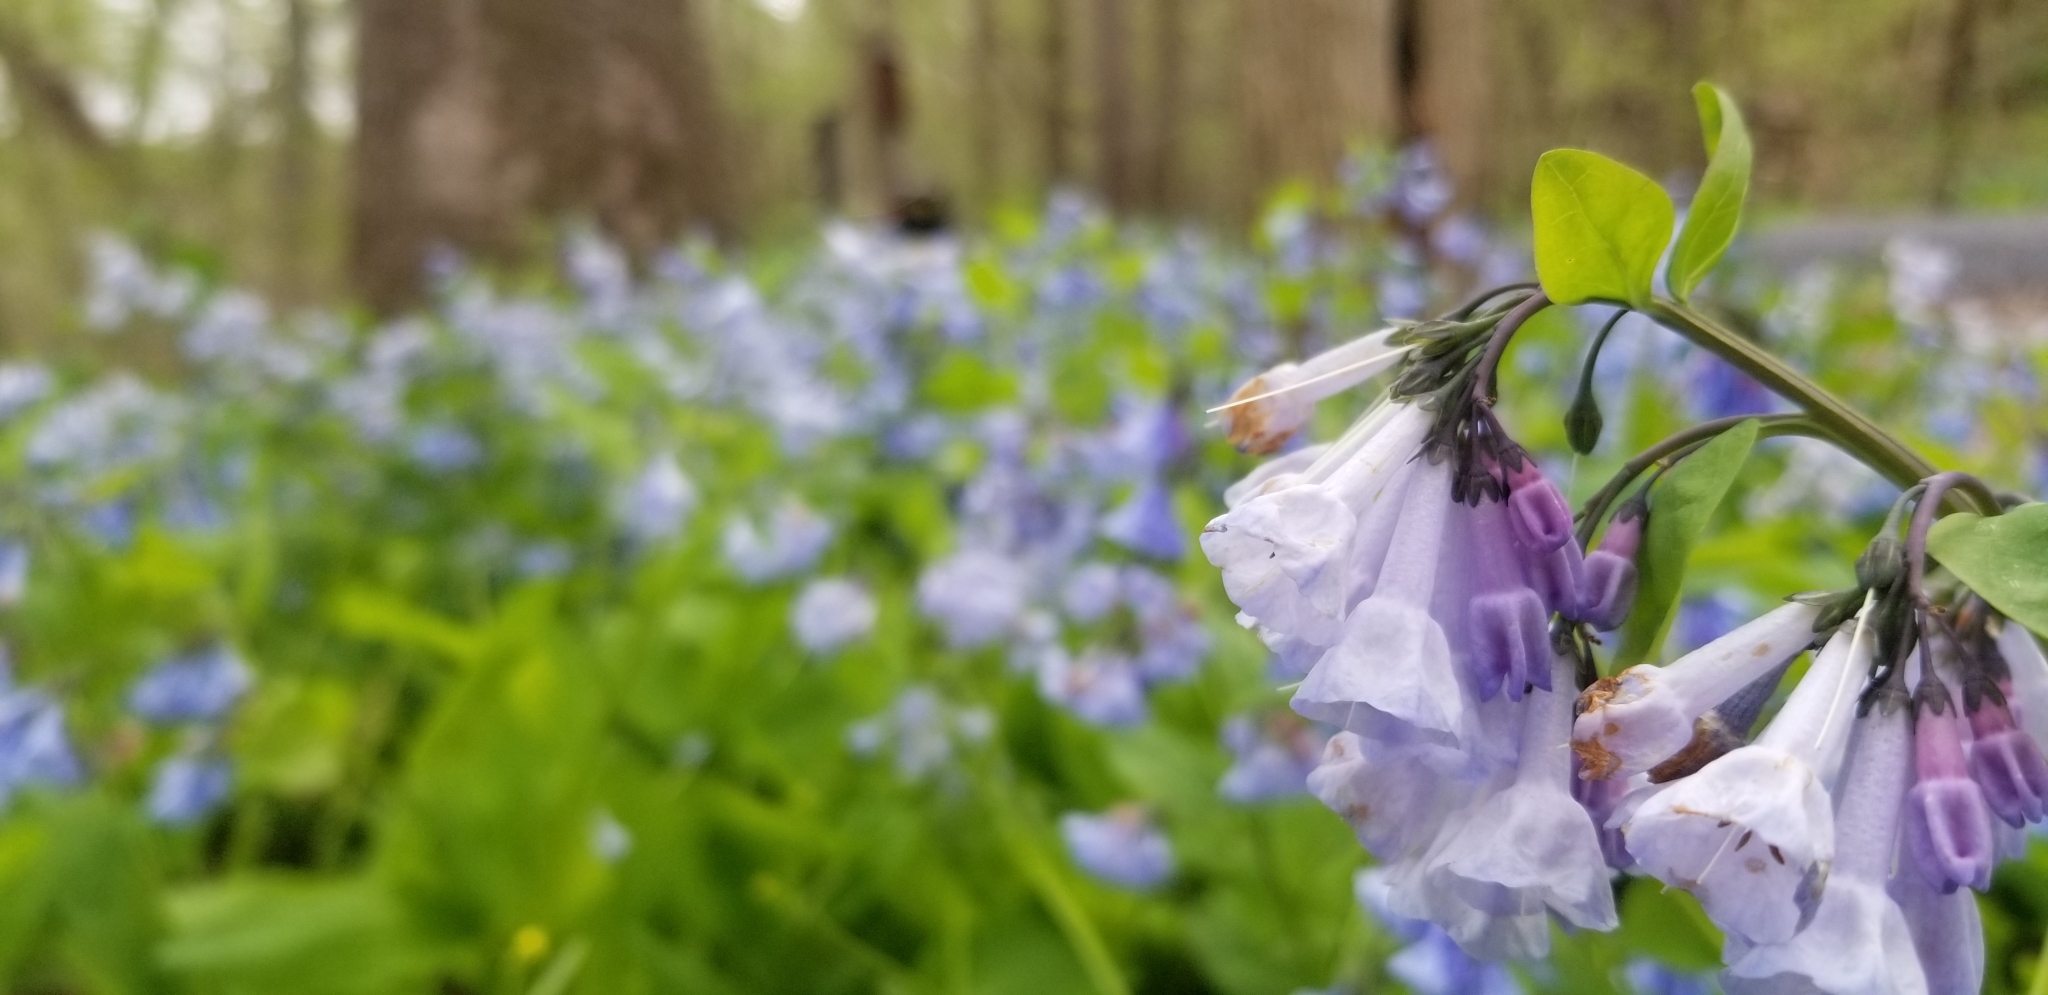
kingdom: Plantae
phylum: Tracheophyta
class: Magnoliopsida
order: Boraginales
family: Boraginaceae
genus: Mertensia
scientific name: Mertensia virginica
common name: Virginia bluebells
